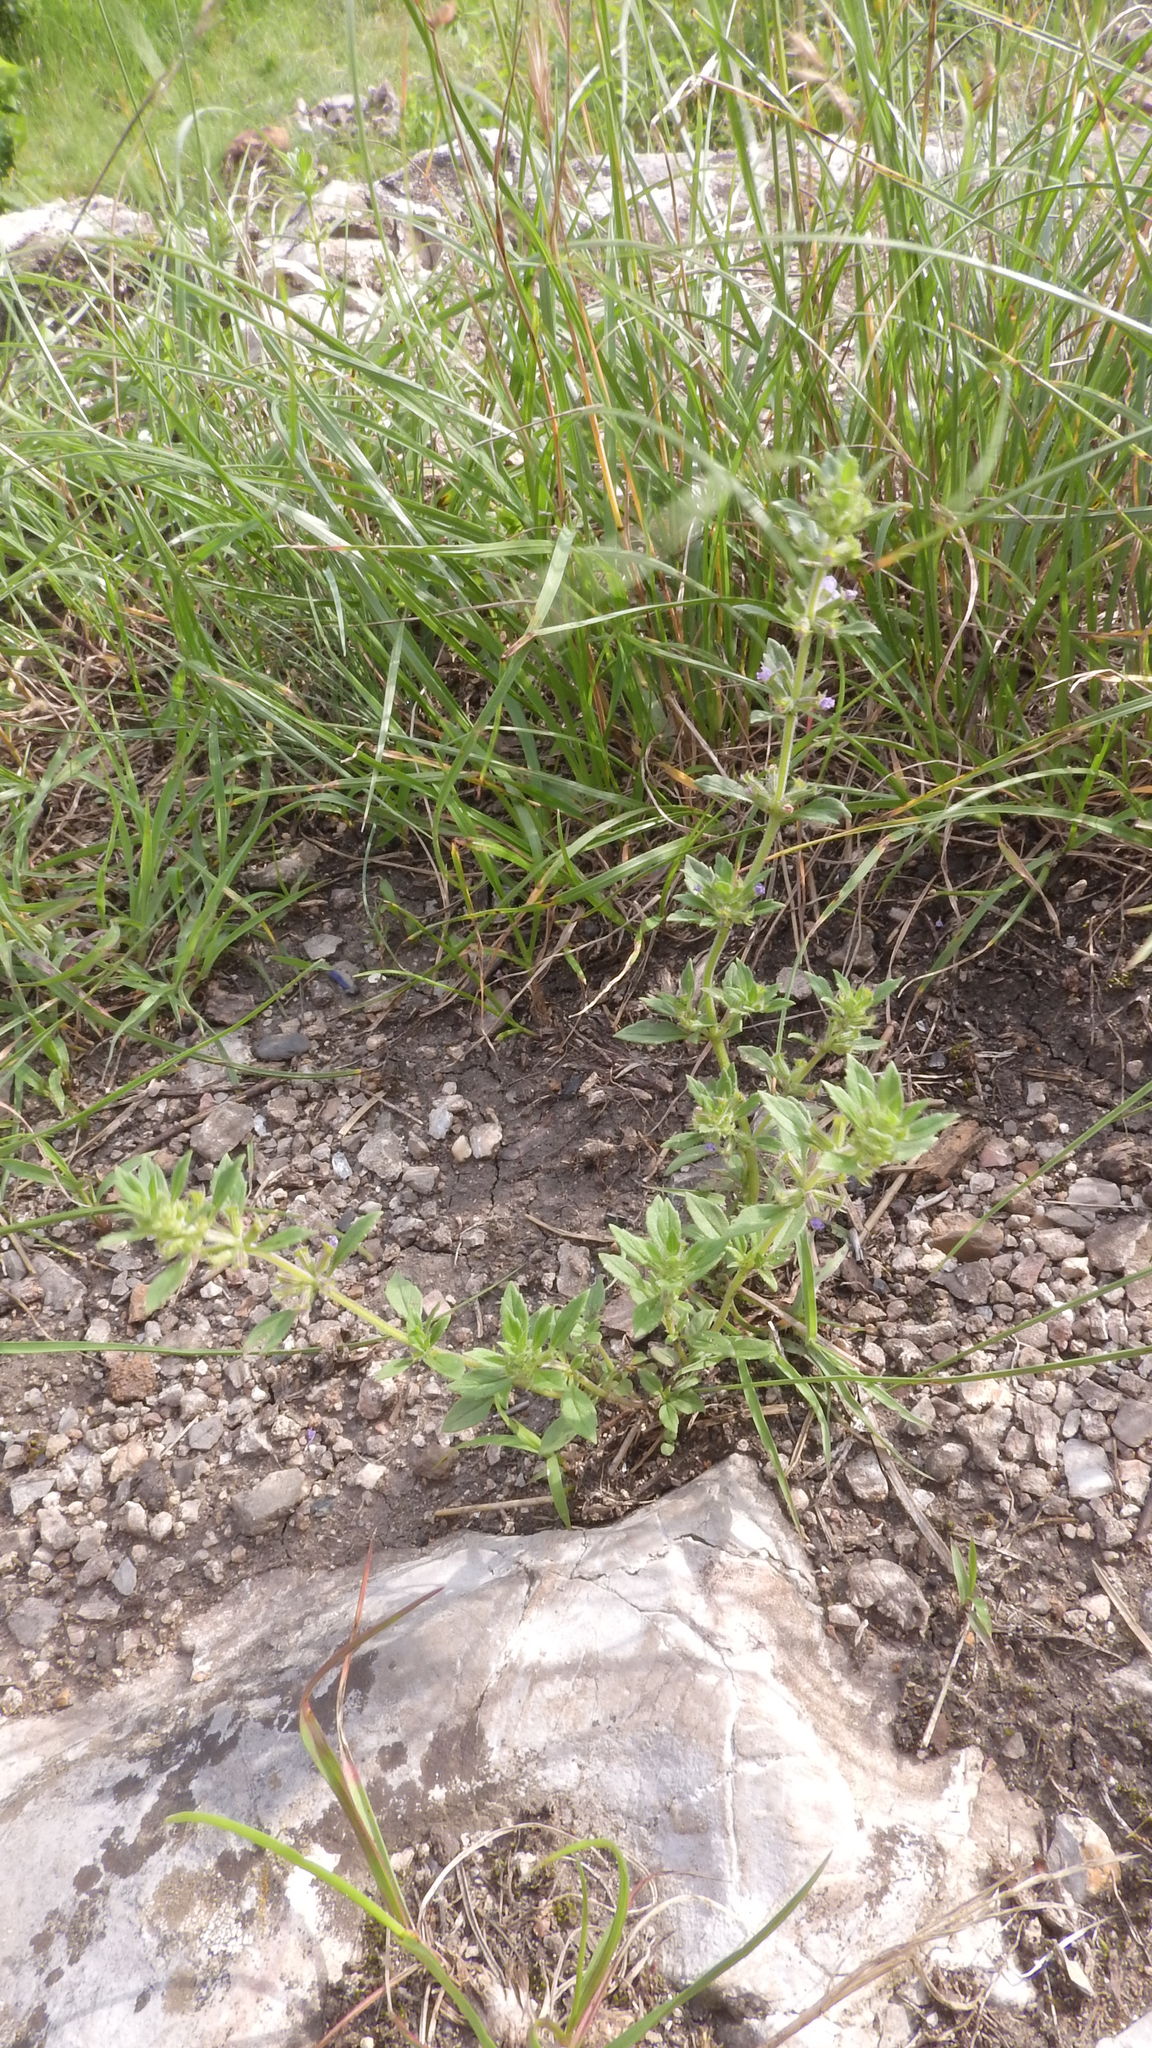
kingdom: Plantae
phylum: Tracheophyta
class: Magnoliopsida
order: Lamiales
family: Lamiaceae
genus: Clinopodium
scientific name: Clinopodium acinos
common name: Basil thyme
